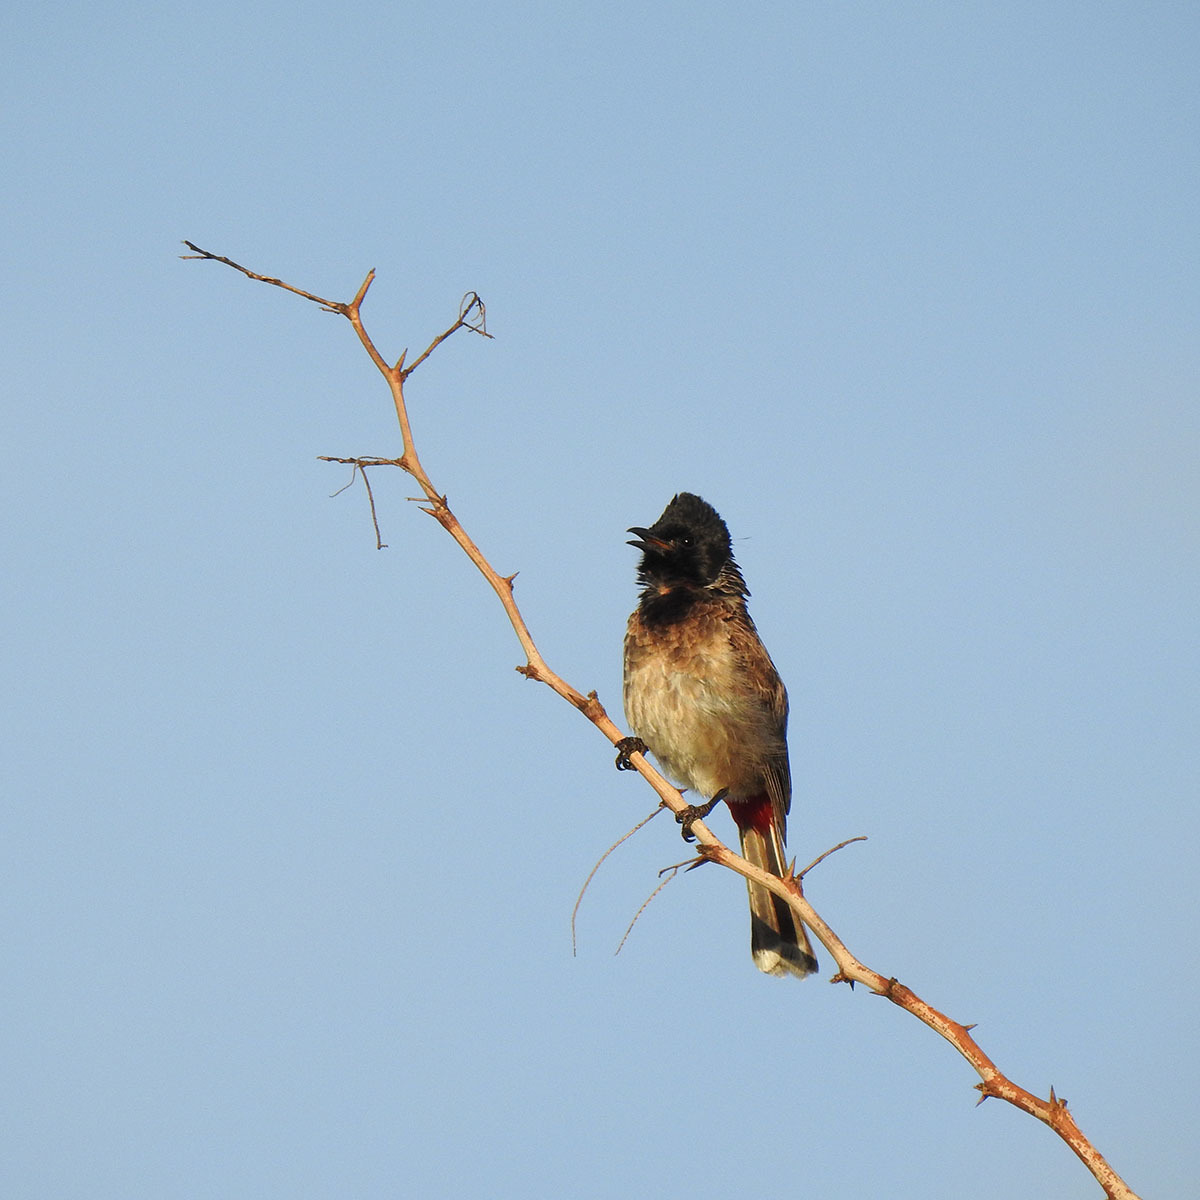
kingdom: Animalia
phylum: Chordata
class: Aves
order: Passeriformes
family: Pycnonotidae
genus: Pycnonotus
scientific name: Pycnonotus cafer
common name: Red-vented bulbul
